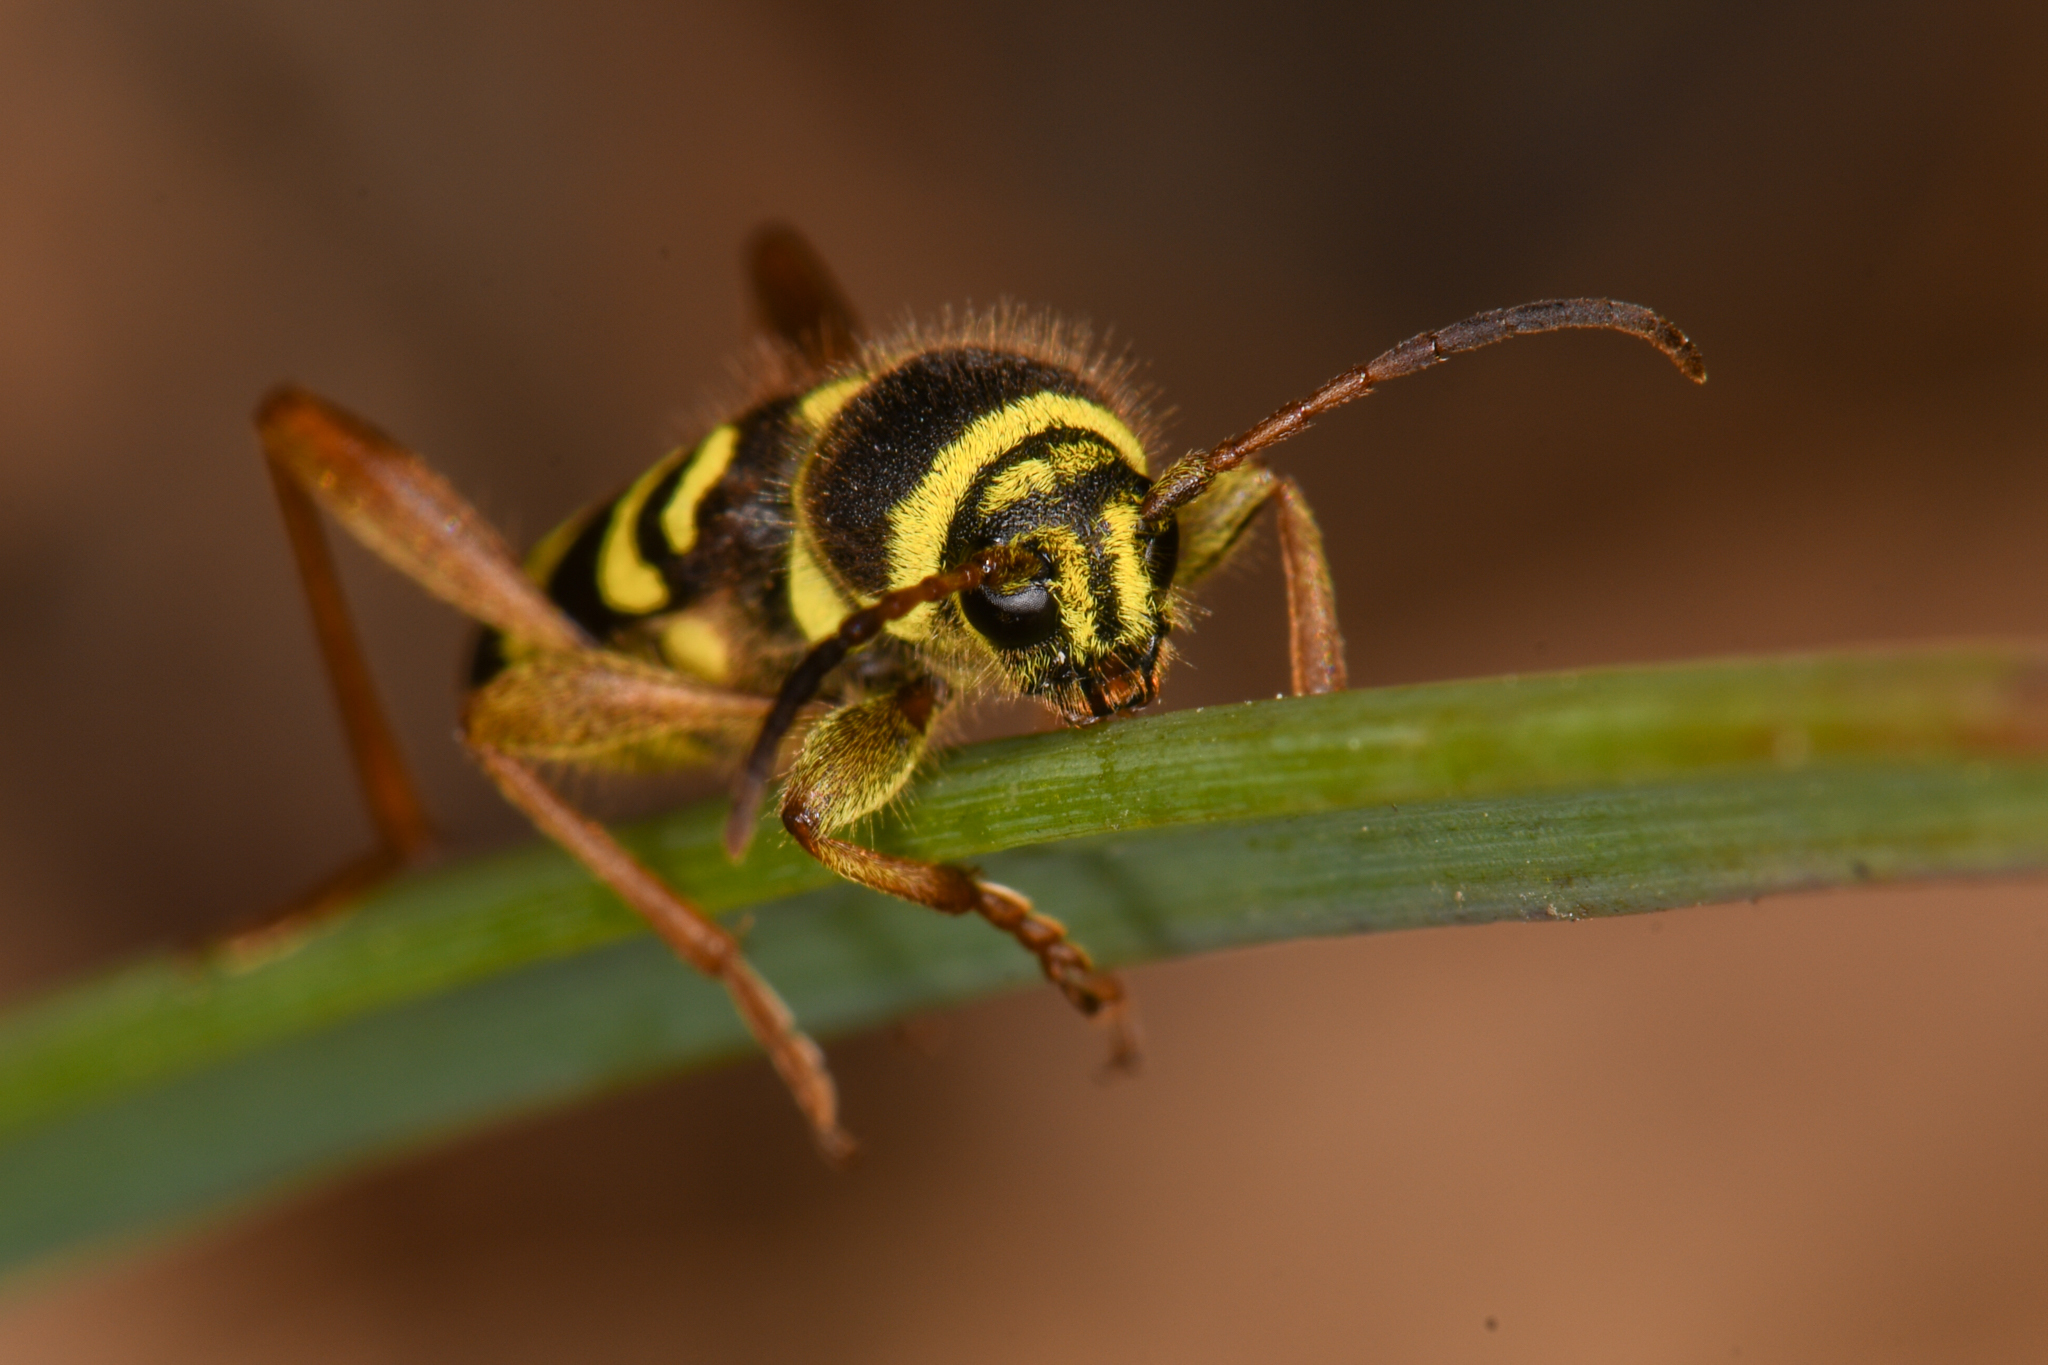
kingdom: Animalia
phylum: Arthropoda
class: Insecta
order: Coleoptera
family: Cerambycidae
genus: Clytus
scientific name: Clytus planifrons
